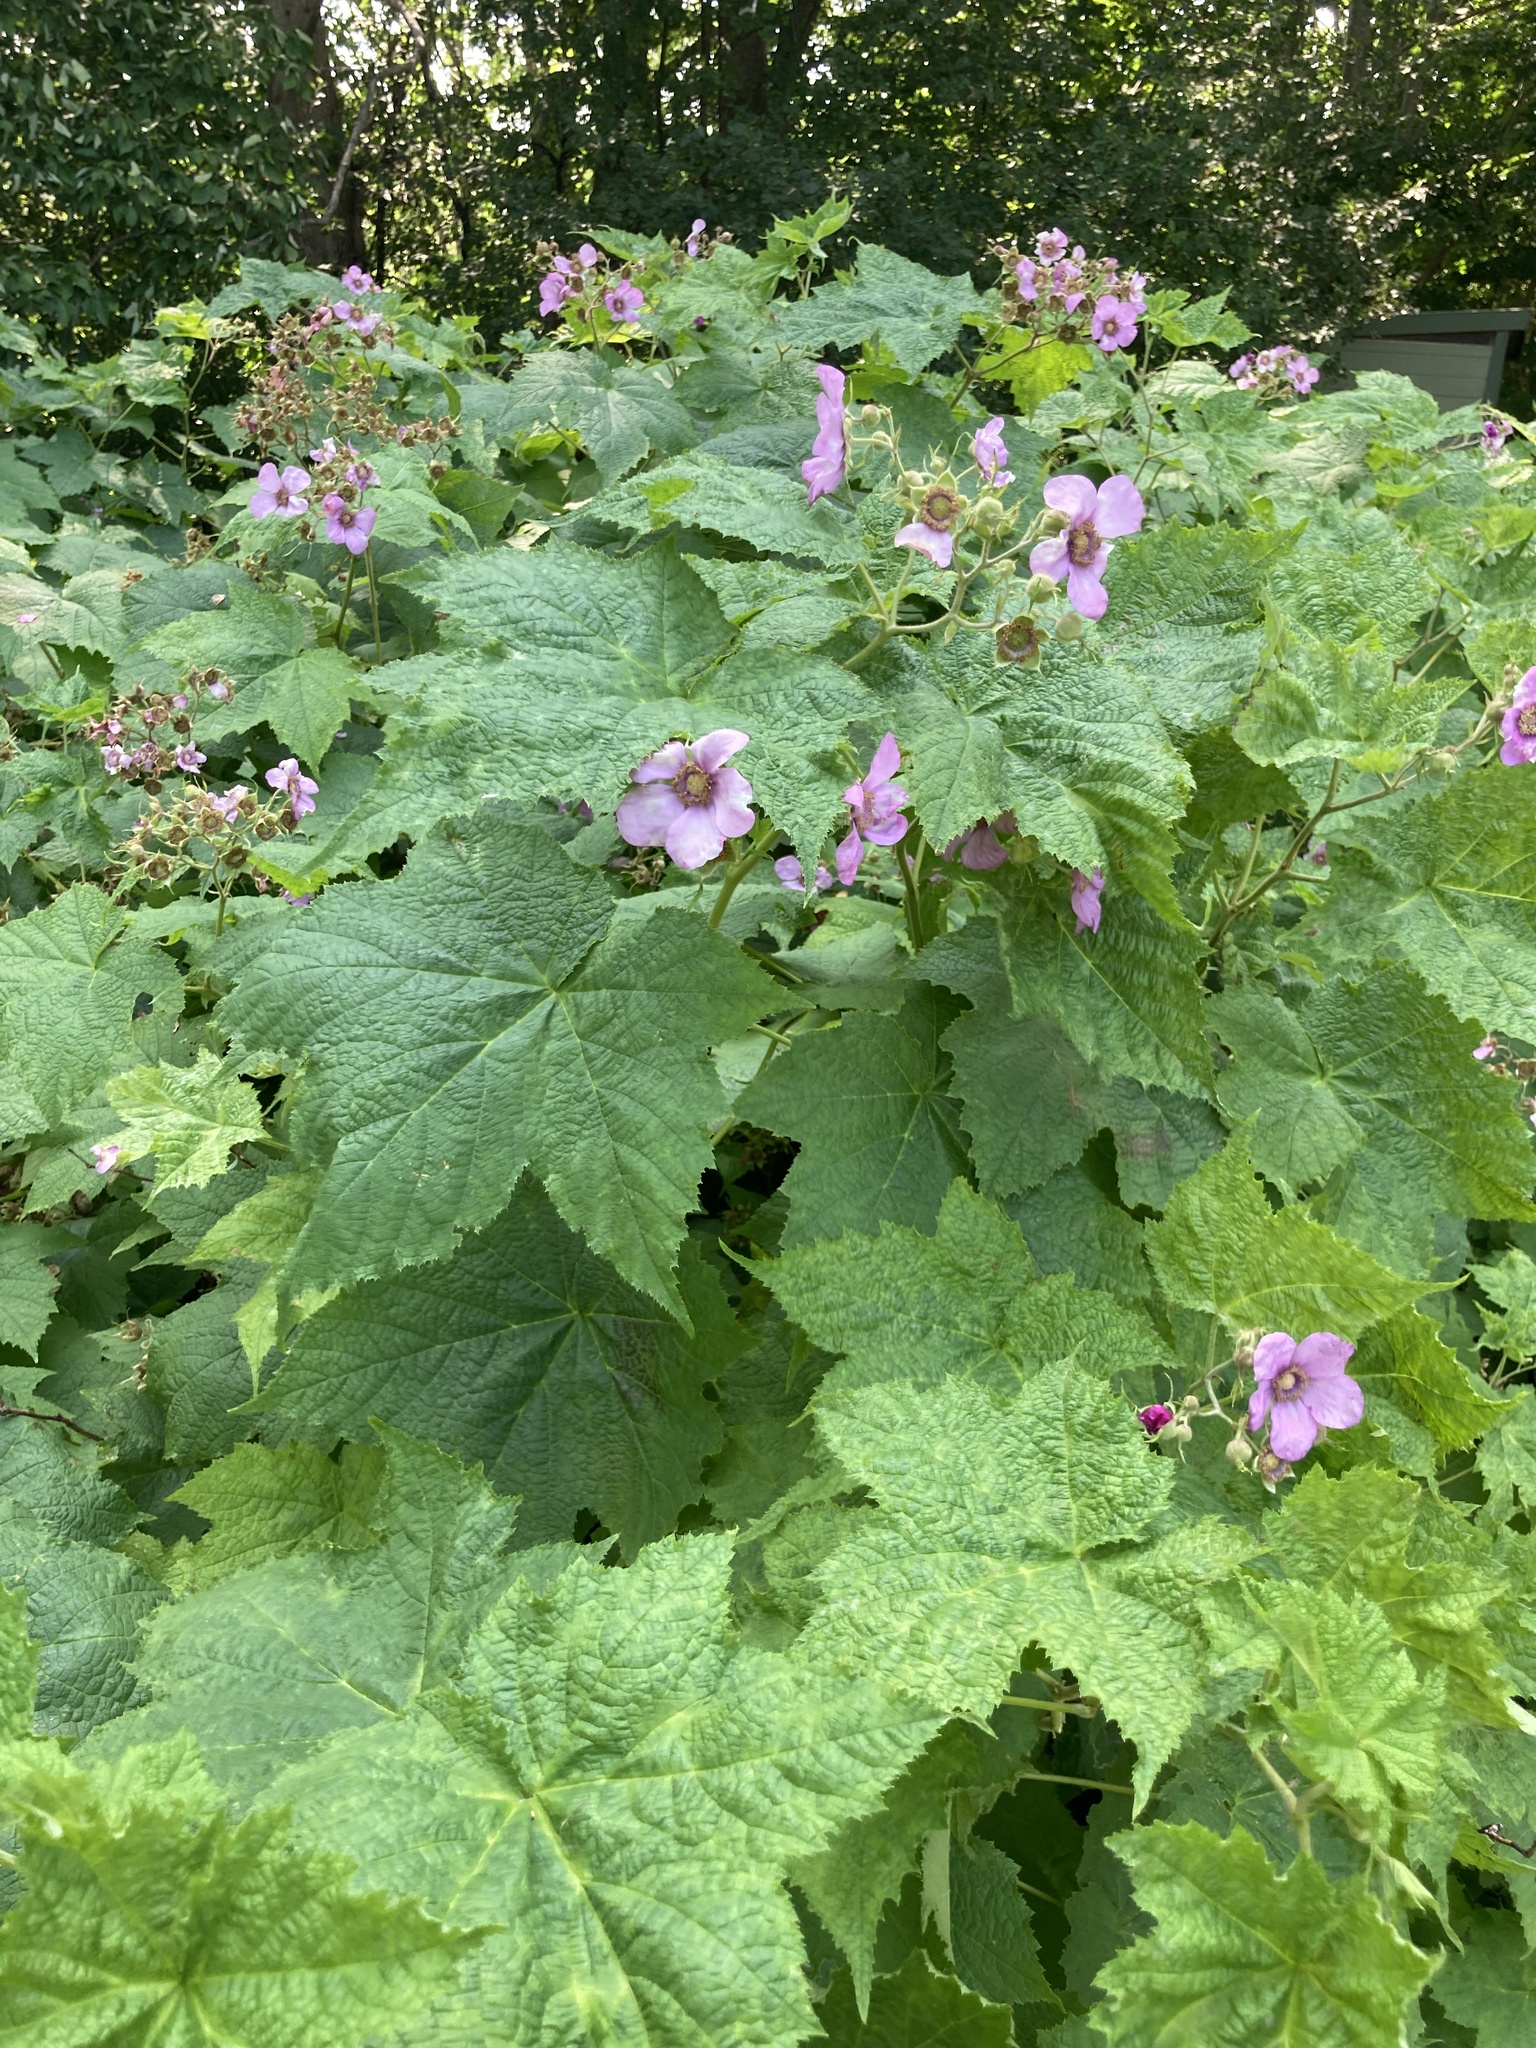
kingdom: Plantae
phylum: Tracheophyta
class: Magnoliopsida
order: Rosales
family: Rosaceae
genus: Rubus
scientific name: Rubus odoratus
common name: Purple-flowered raspberry
